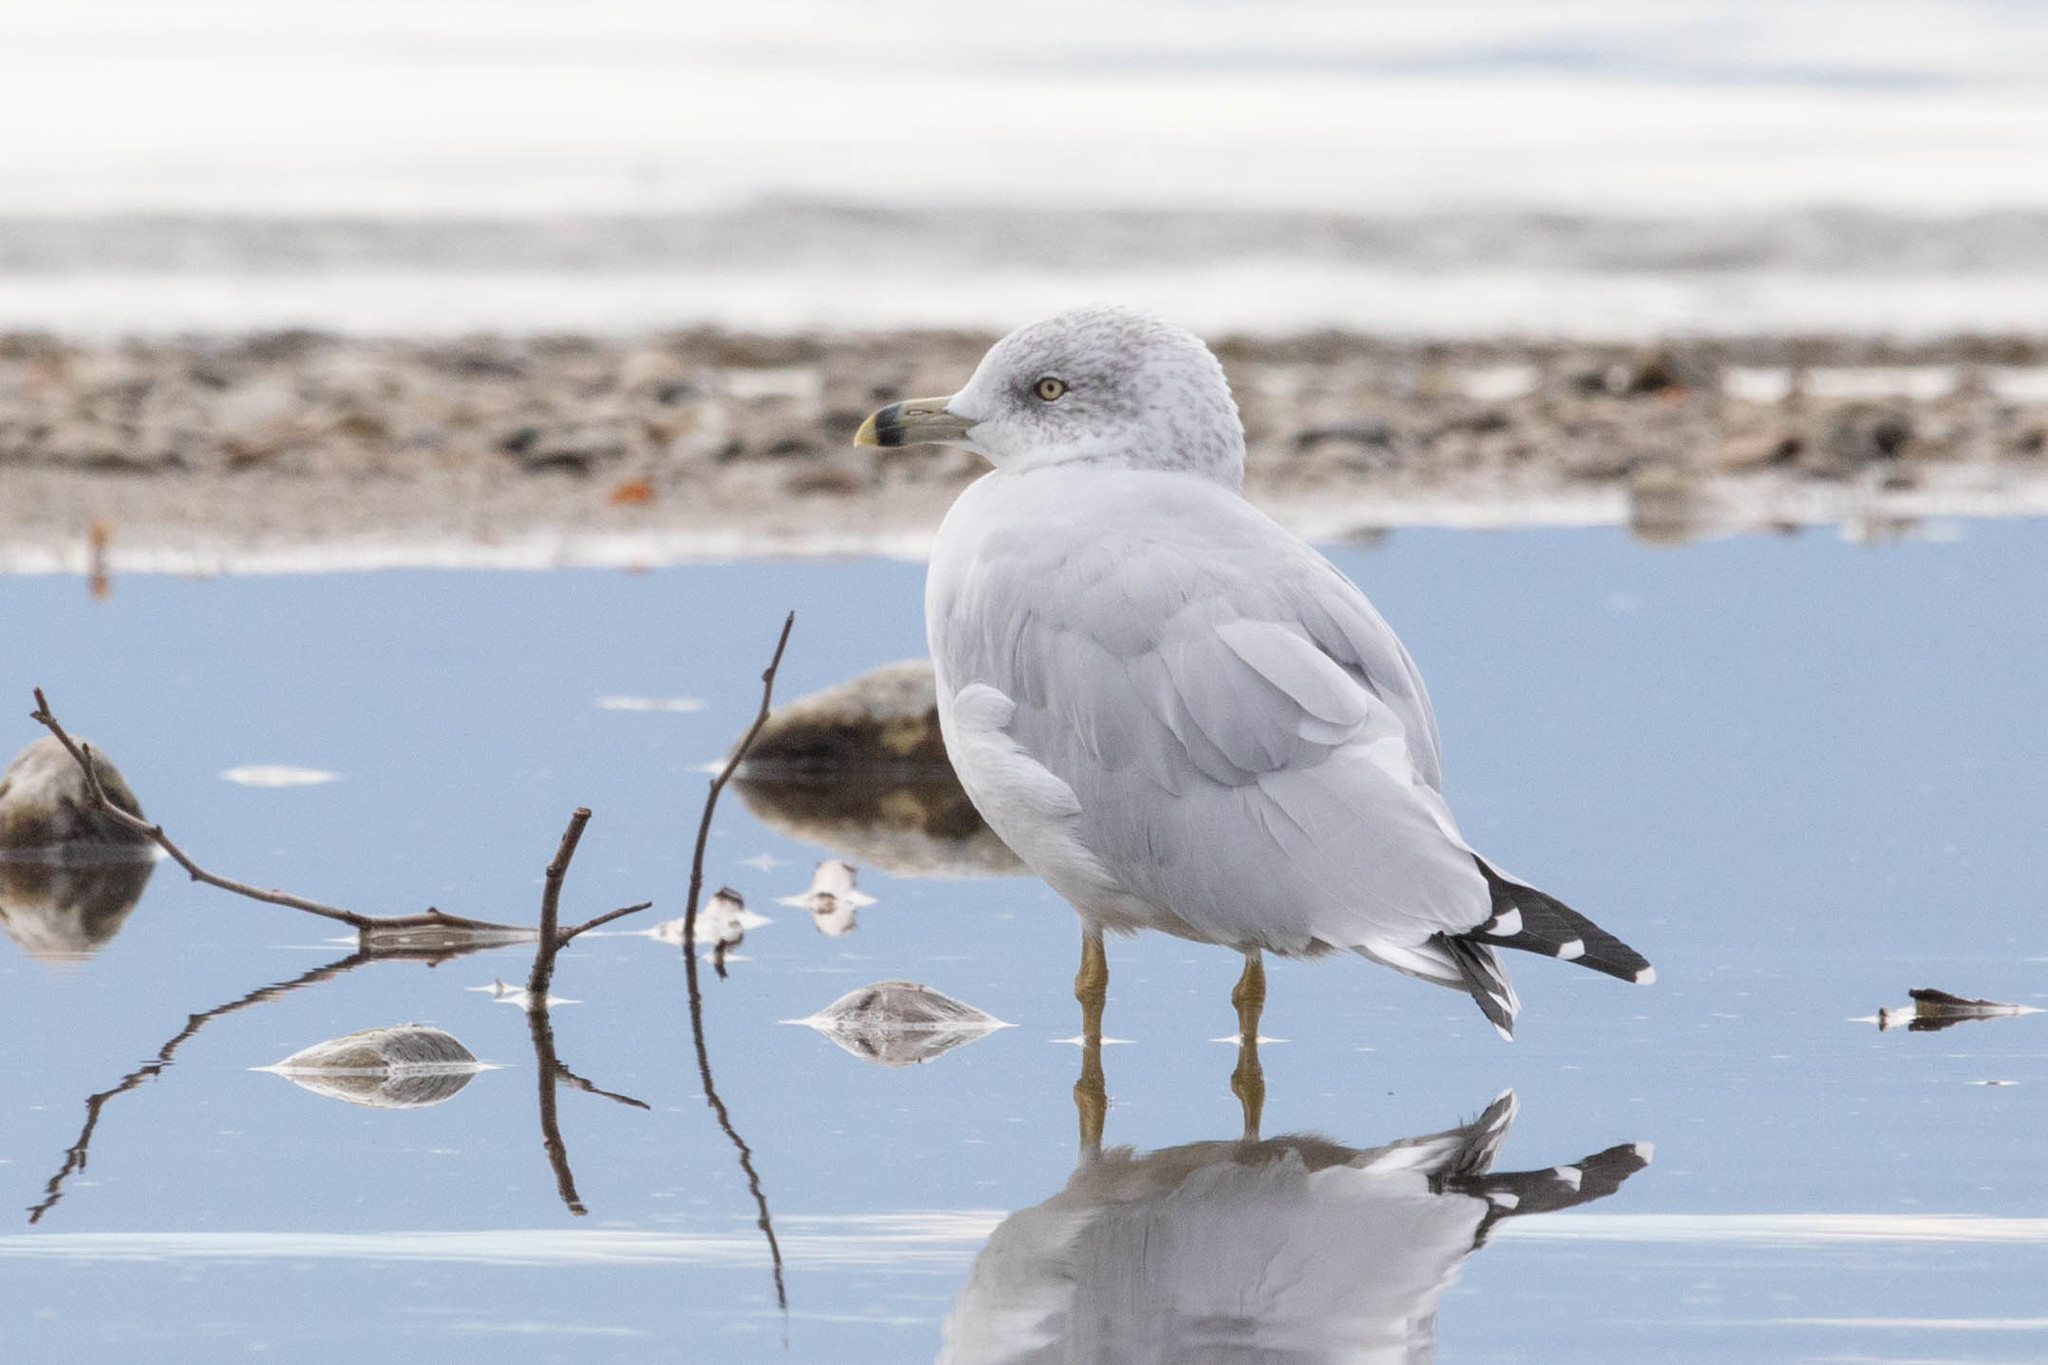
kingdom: Animalia
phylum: Chordata
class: Aves
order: Charadriiformes
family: Laridae
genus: Larus
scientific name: Larus delawarensis
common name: Ring-billed gull
